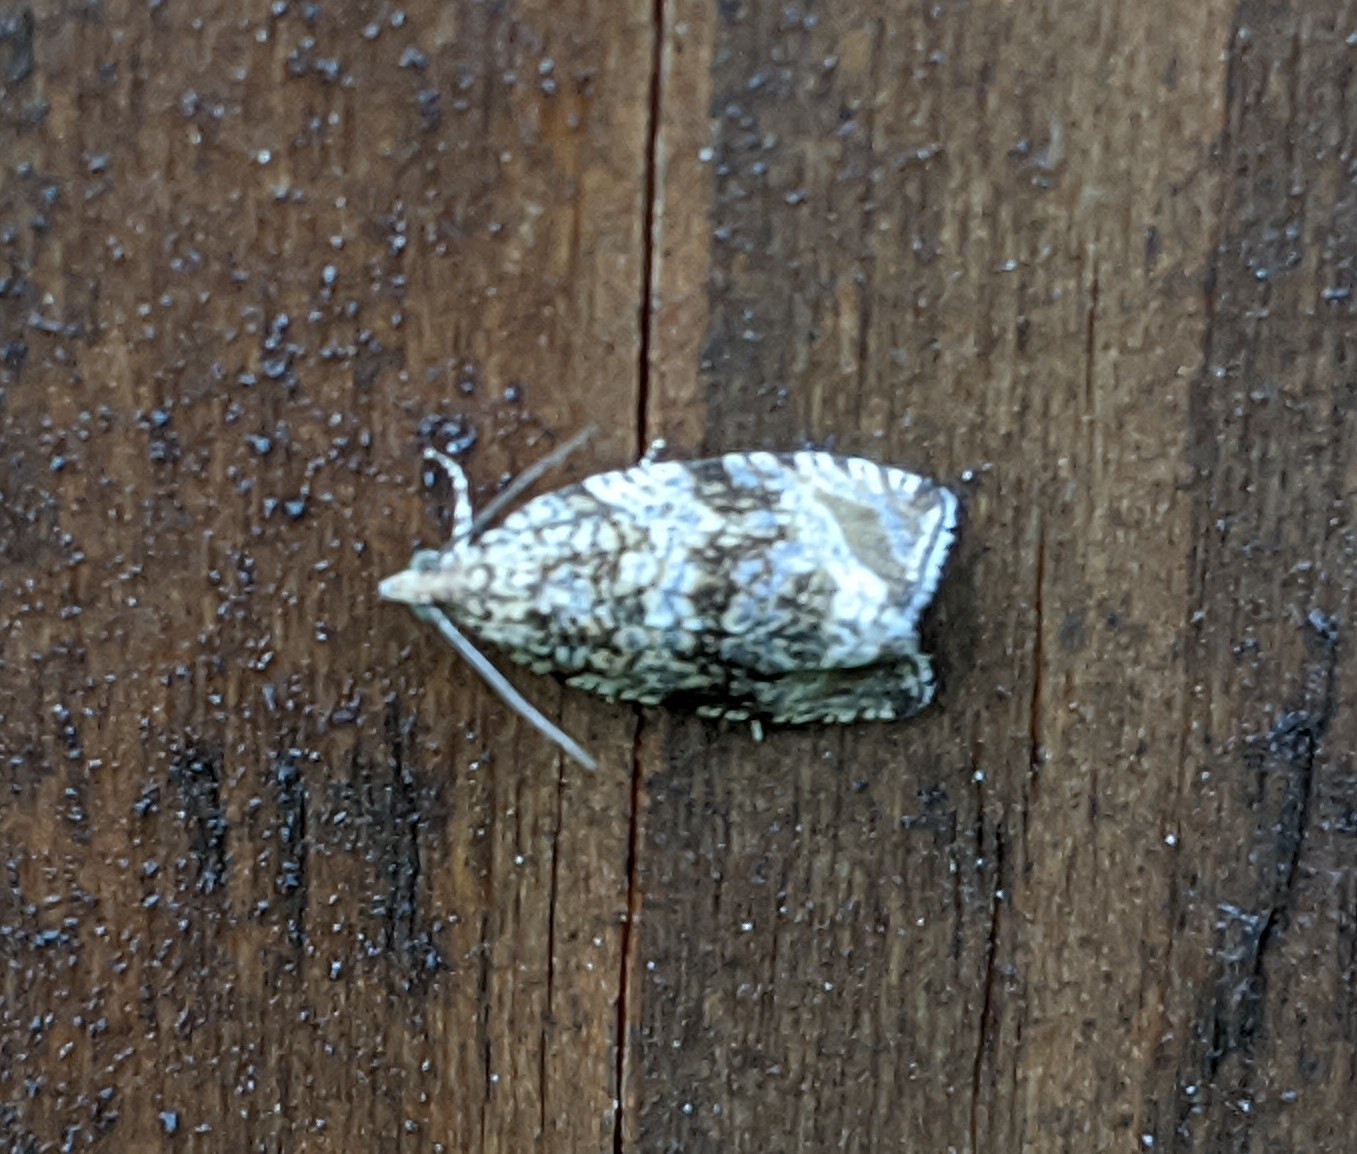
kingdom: Animalia
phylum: Arthropoda
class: Insecta
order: Lepidoptera
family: Tortricidae
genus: Syricoris
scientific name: Syricoris lacunana
